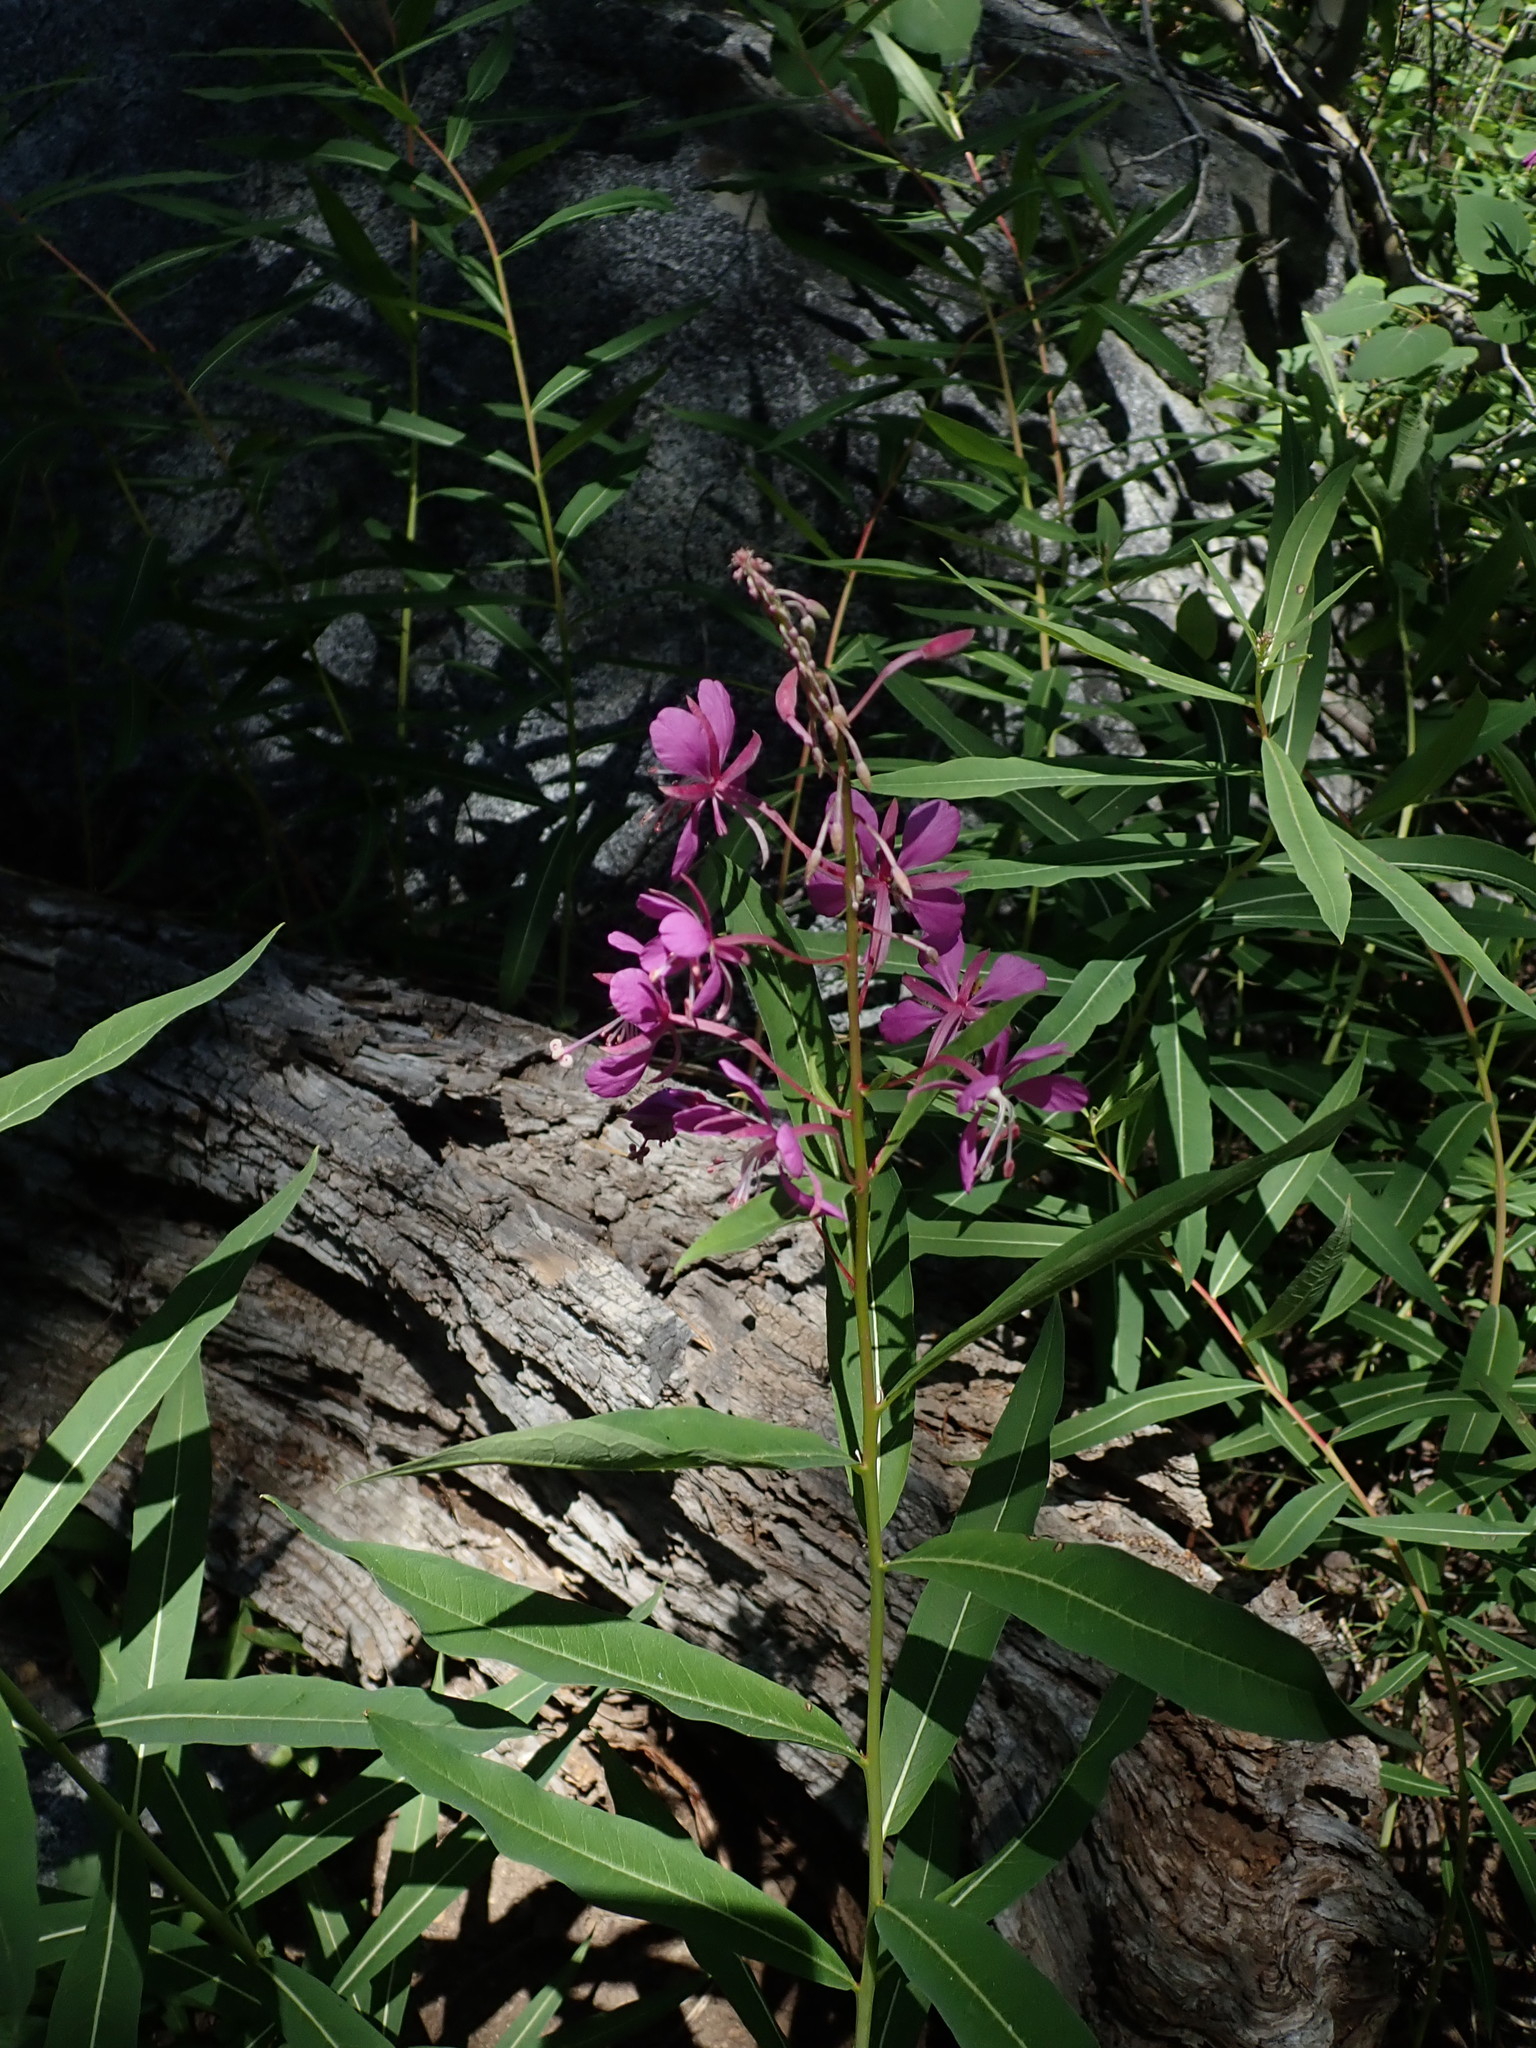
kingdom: Plantae
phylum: Tracheophyta
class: Magnoliopsida
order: Myrtales
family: Onagraceae
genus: Chamaenerion
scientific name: Chamaenerion angustifolium
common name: Fireweed
